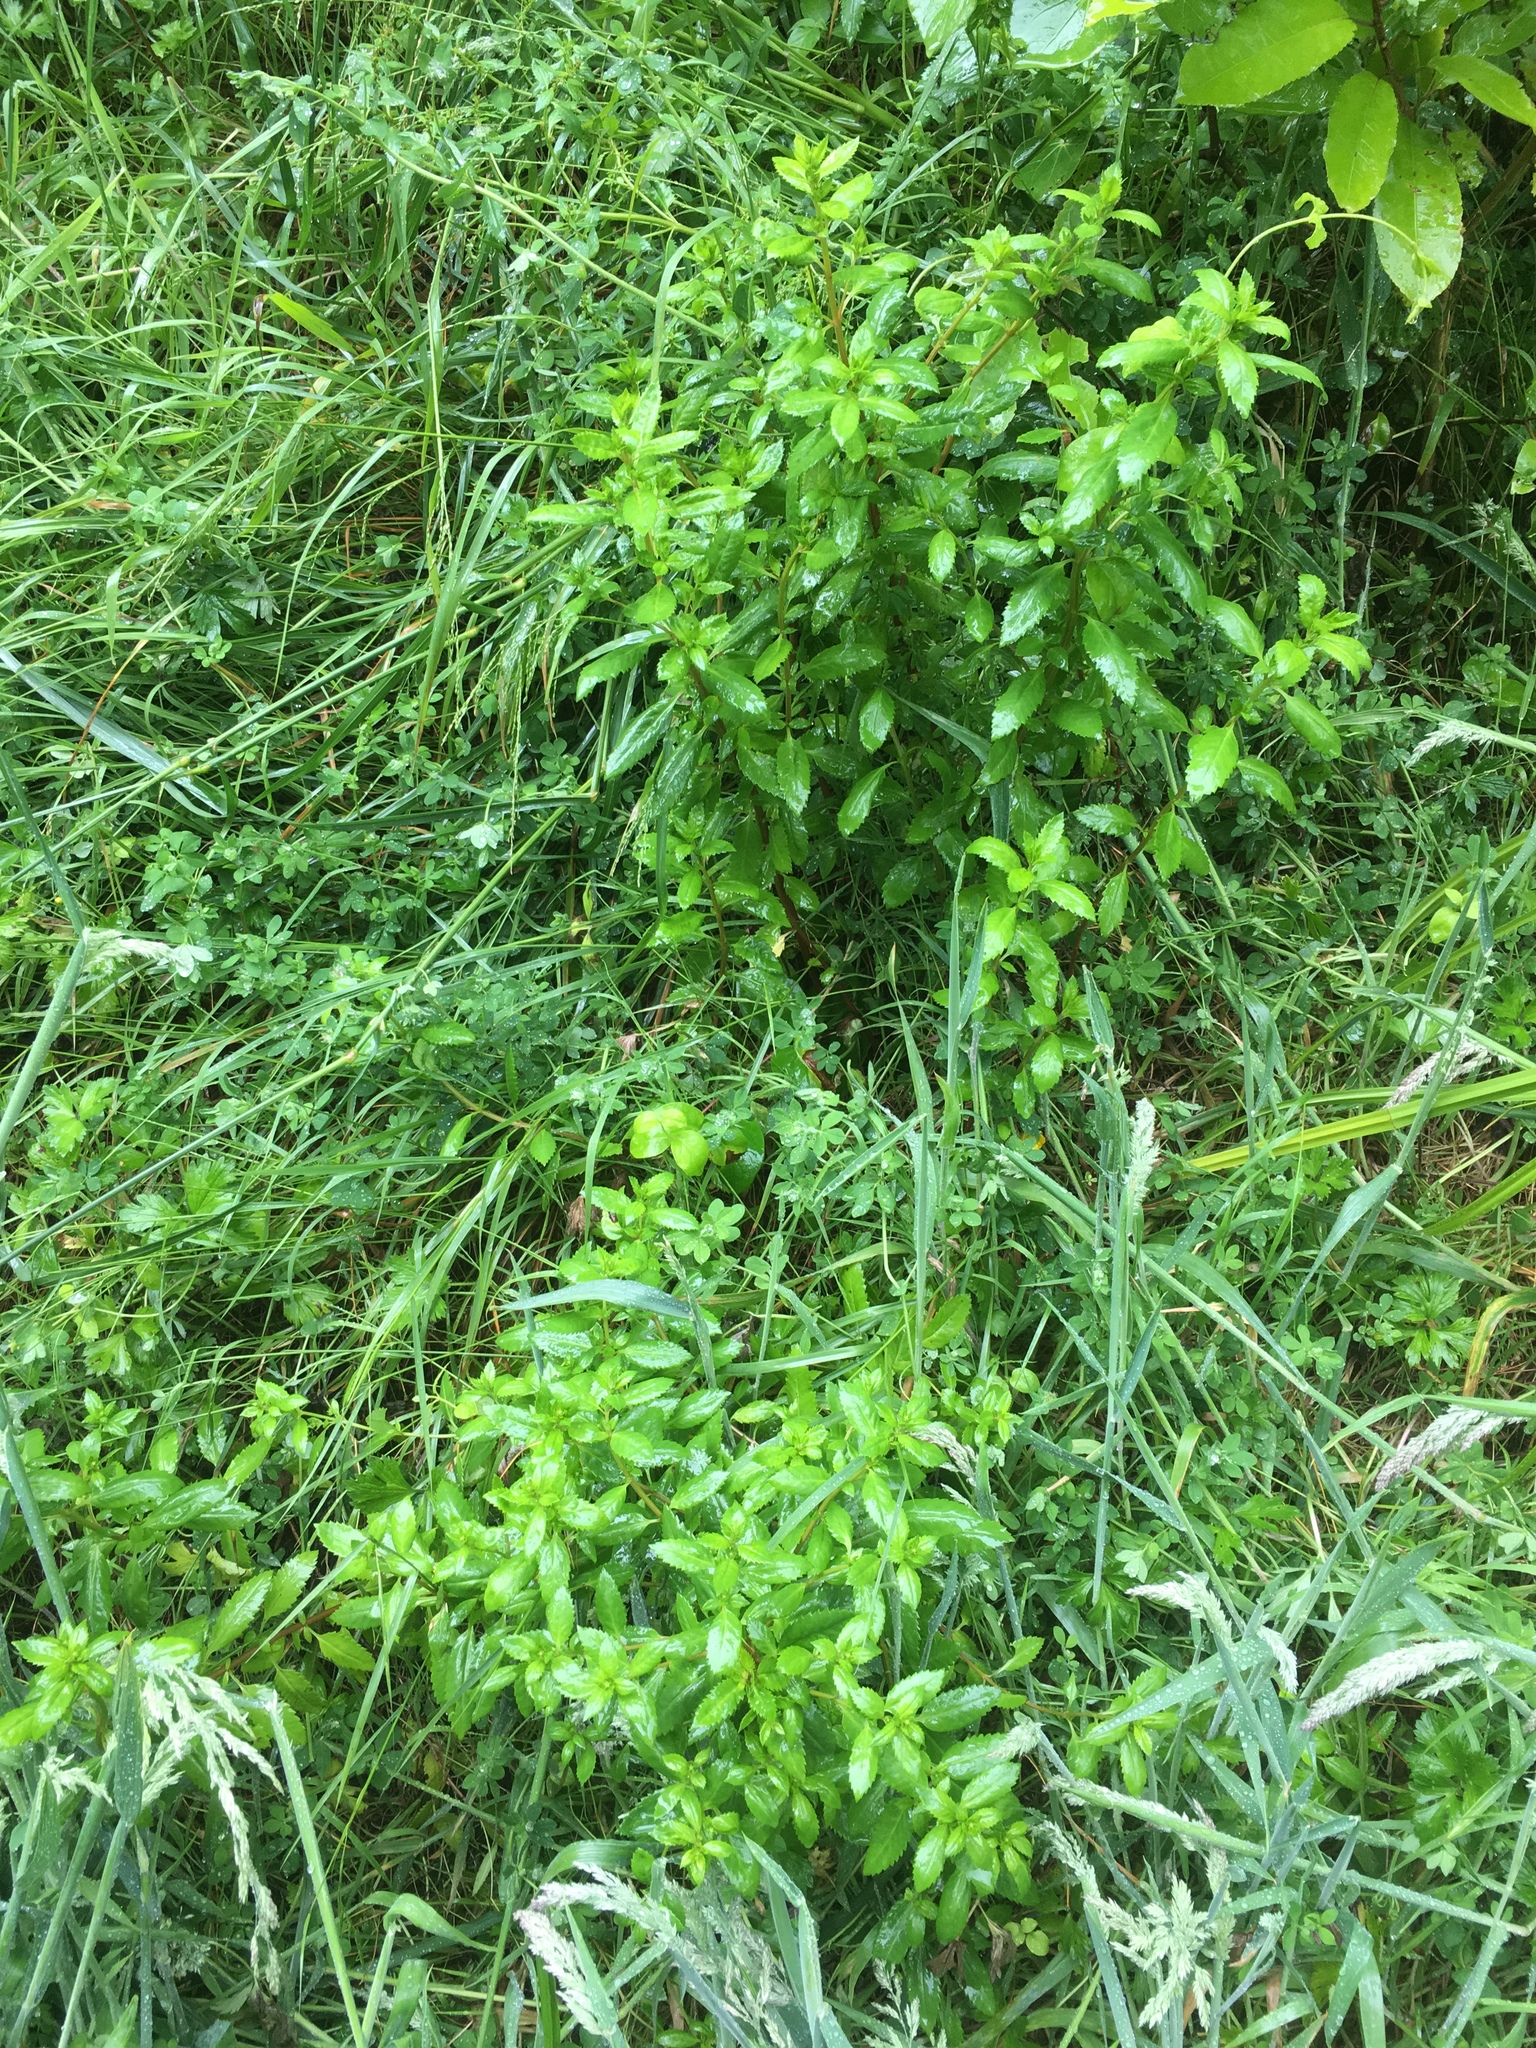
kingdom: Plantae
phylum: Tracheophyta
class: Magnoliopsida
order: Saxifragales
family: Haloragaceae
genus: Haloragis
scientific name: Haloragis erecta
